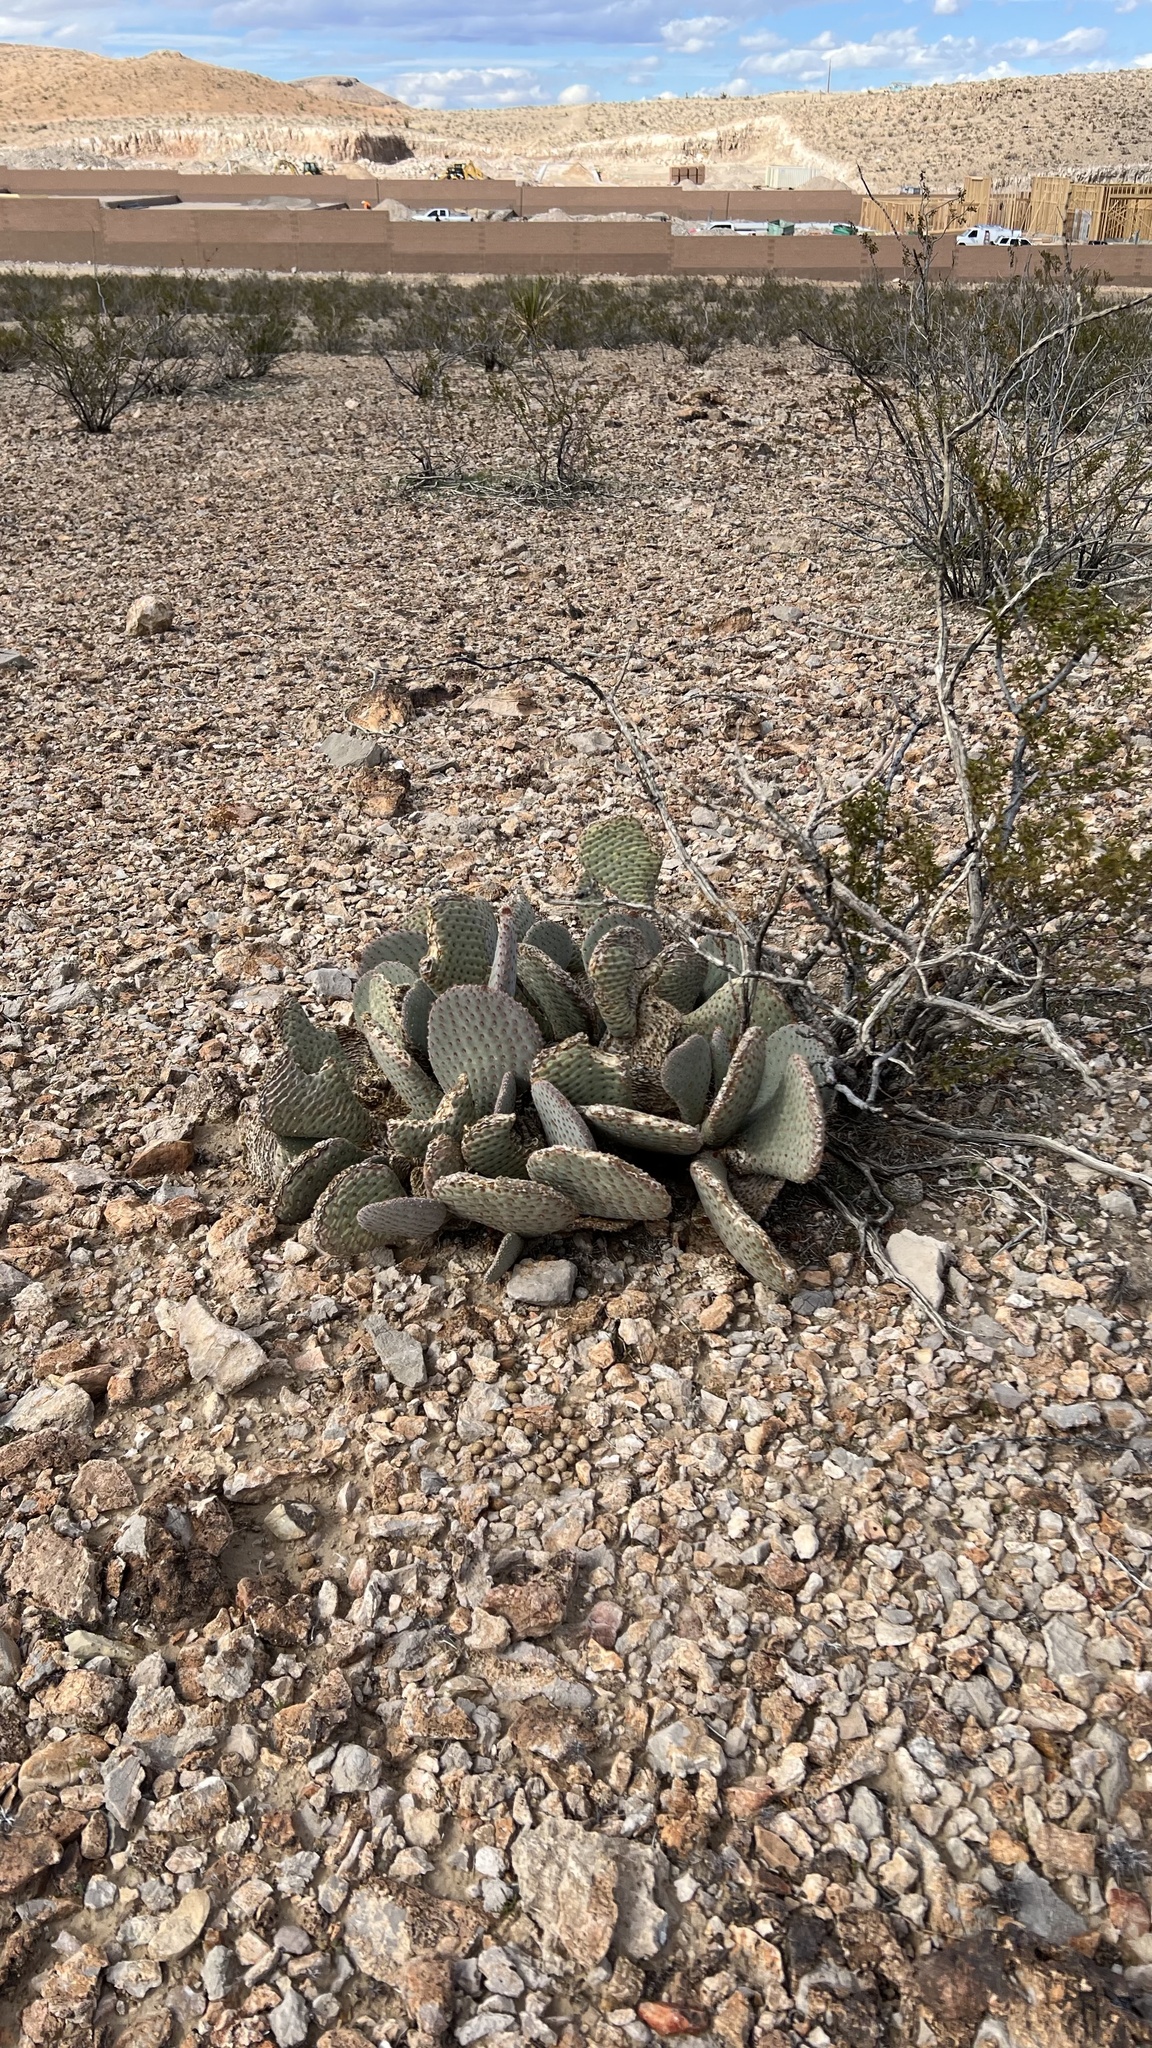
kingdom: Plantae
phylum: Tracheophyta
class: Magnoliopsida
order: Caryophyllales
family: Cactaceae
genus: Opuntia
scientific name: Opuntia basilaris
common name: Beavertail prickly-pear
